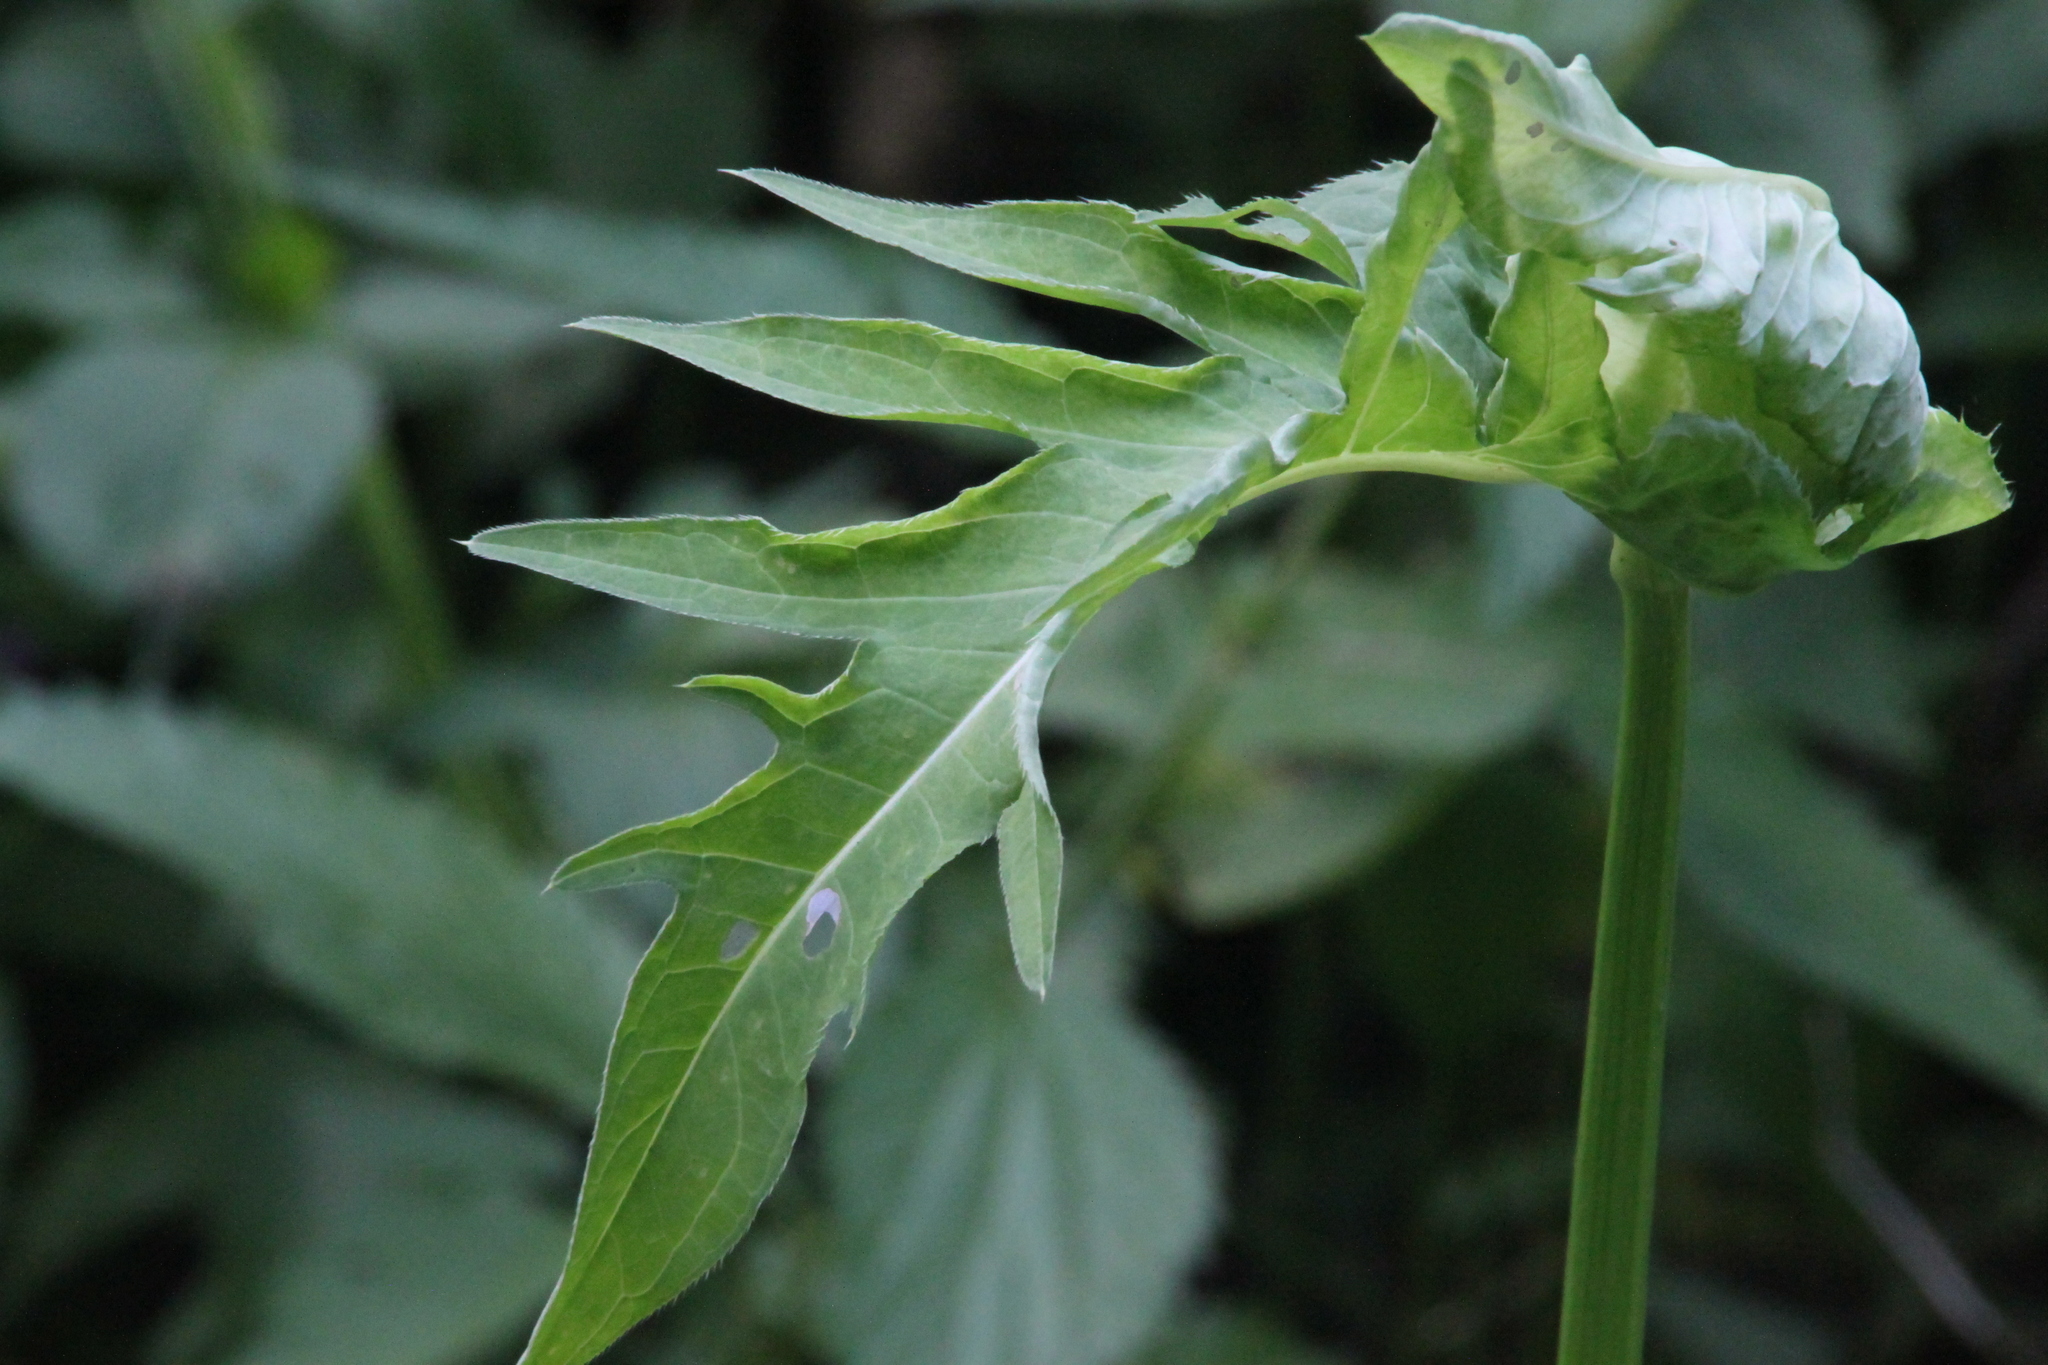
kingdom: Plantae
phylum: Tracheophyta
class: Magnoliopsida
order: Asterales
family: Asteraceae
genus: Cirsium
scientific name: Cirsium oleraceum
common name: Cabbage thistle
